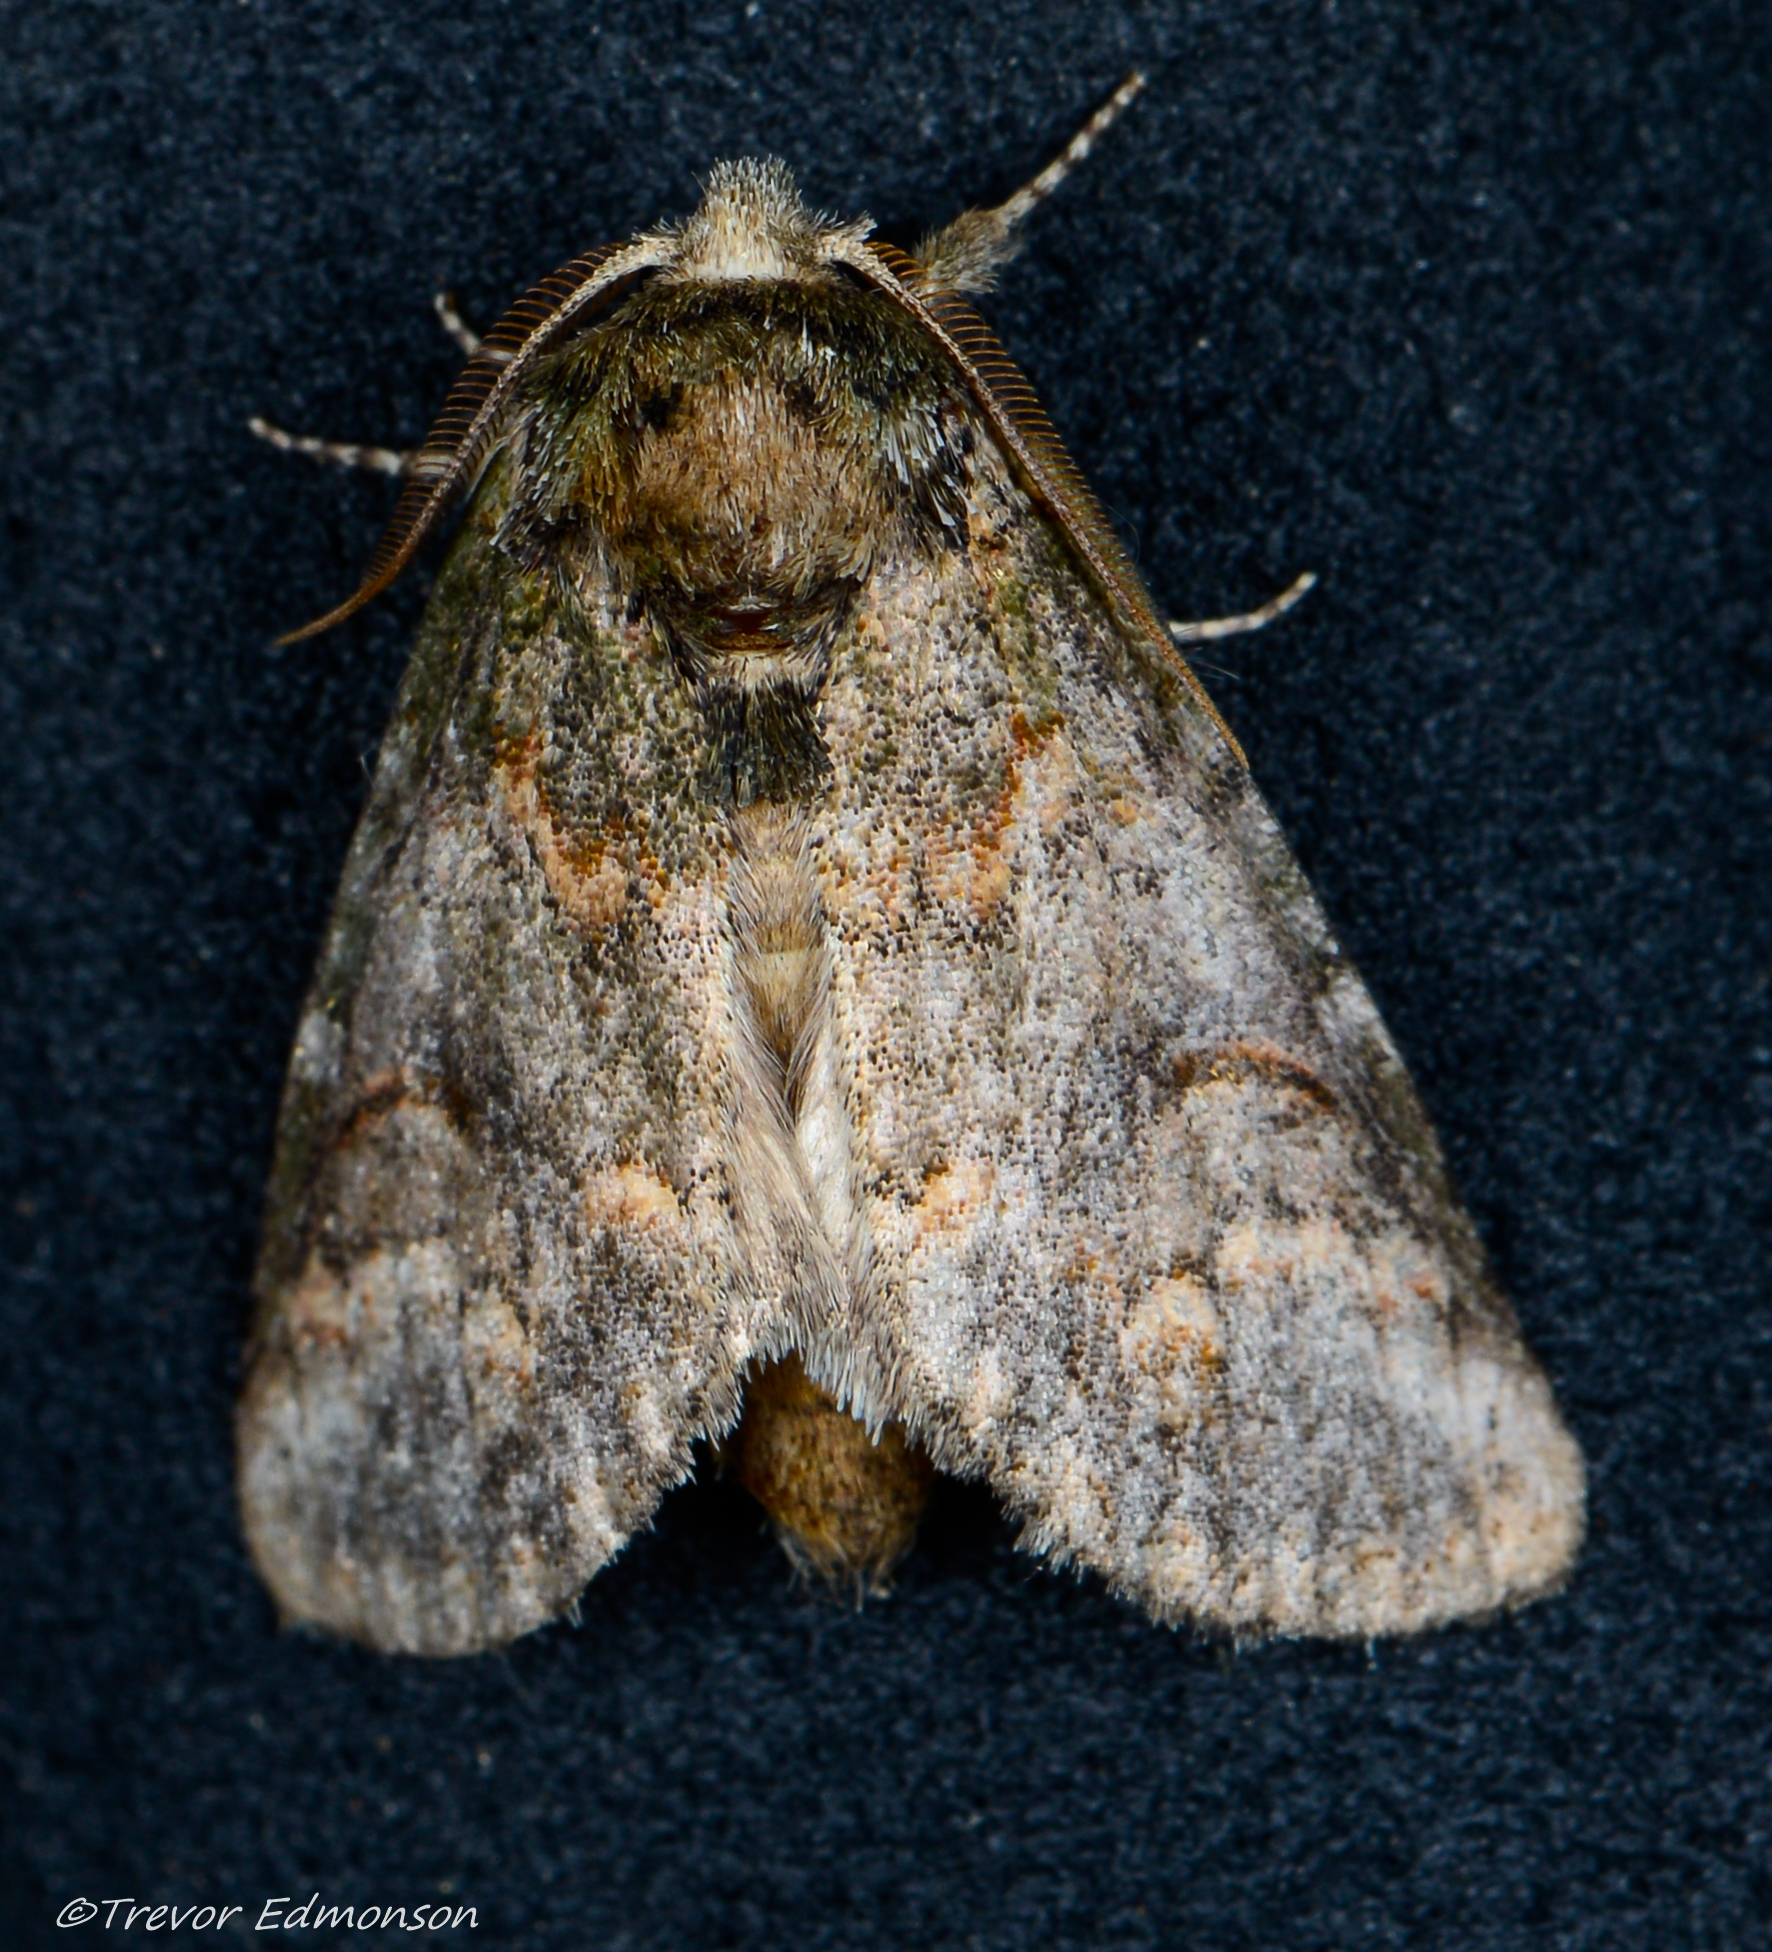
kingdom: Animalia
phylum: Arthropoda
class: Insecta
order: Lepidoptera
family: Notodontidae
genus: Disphragis
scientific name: Disphragis Cecrita biundata
